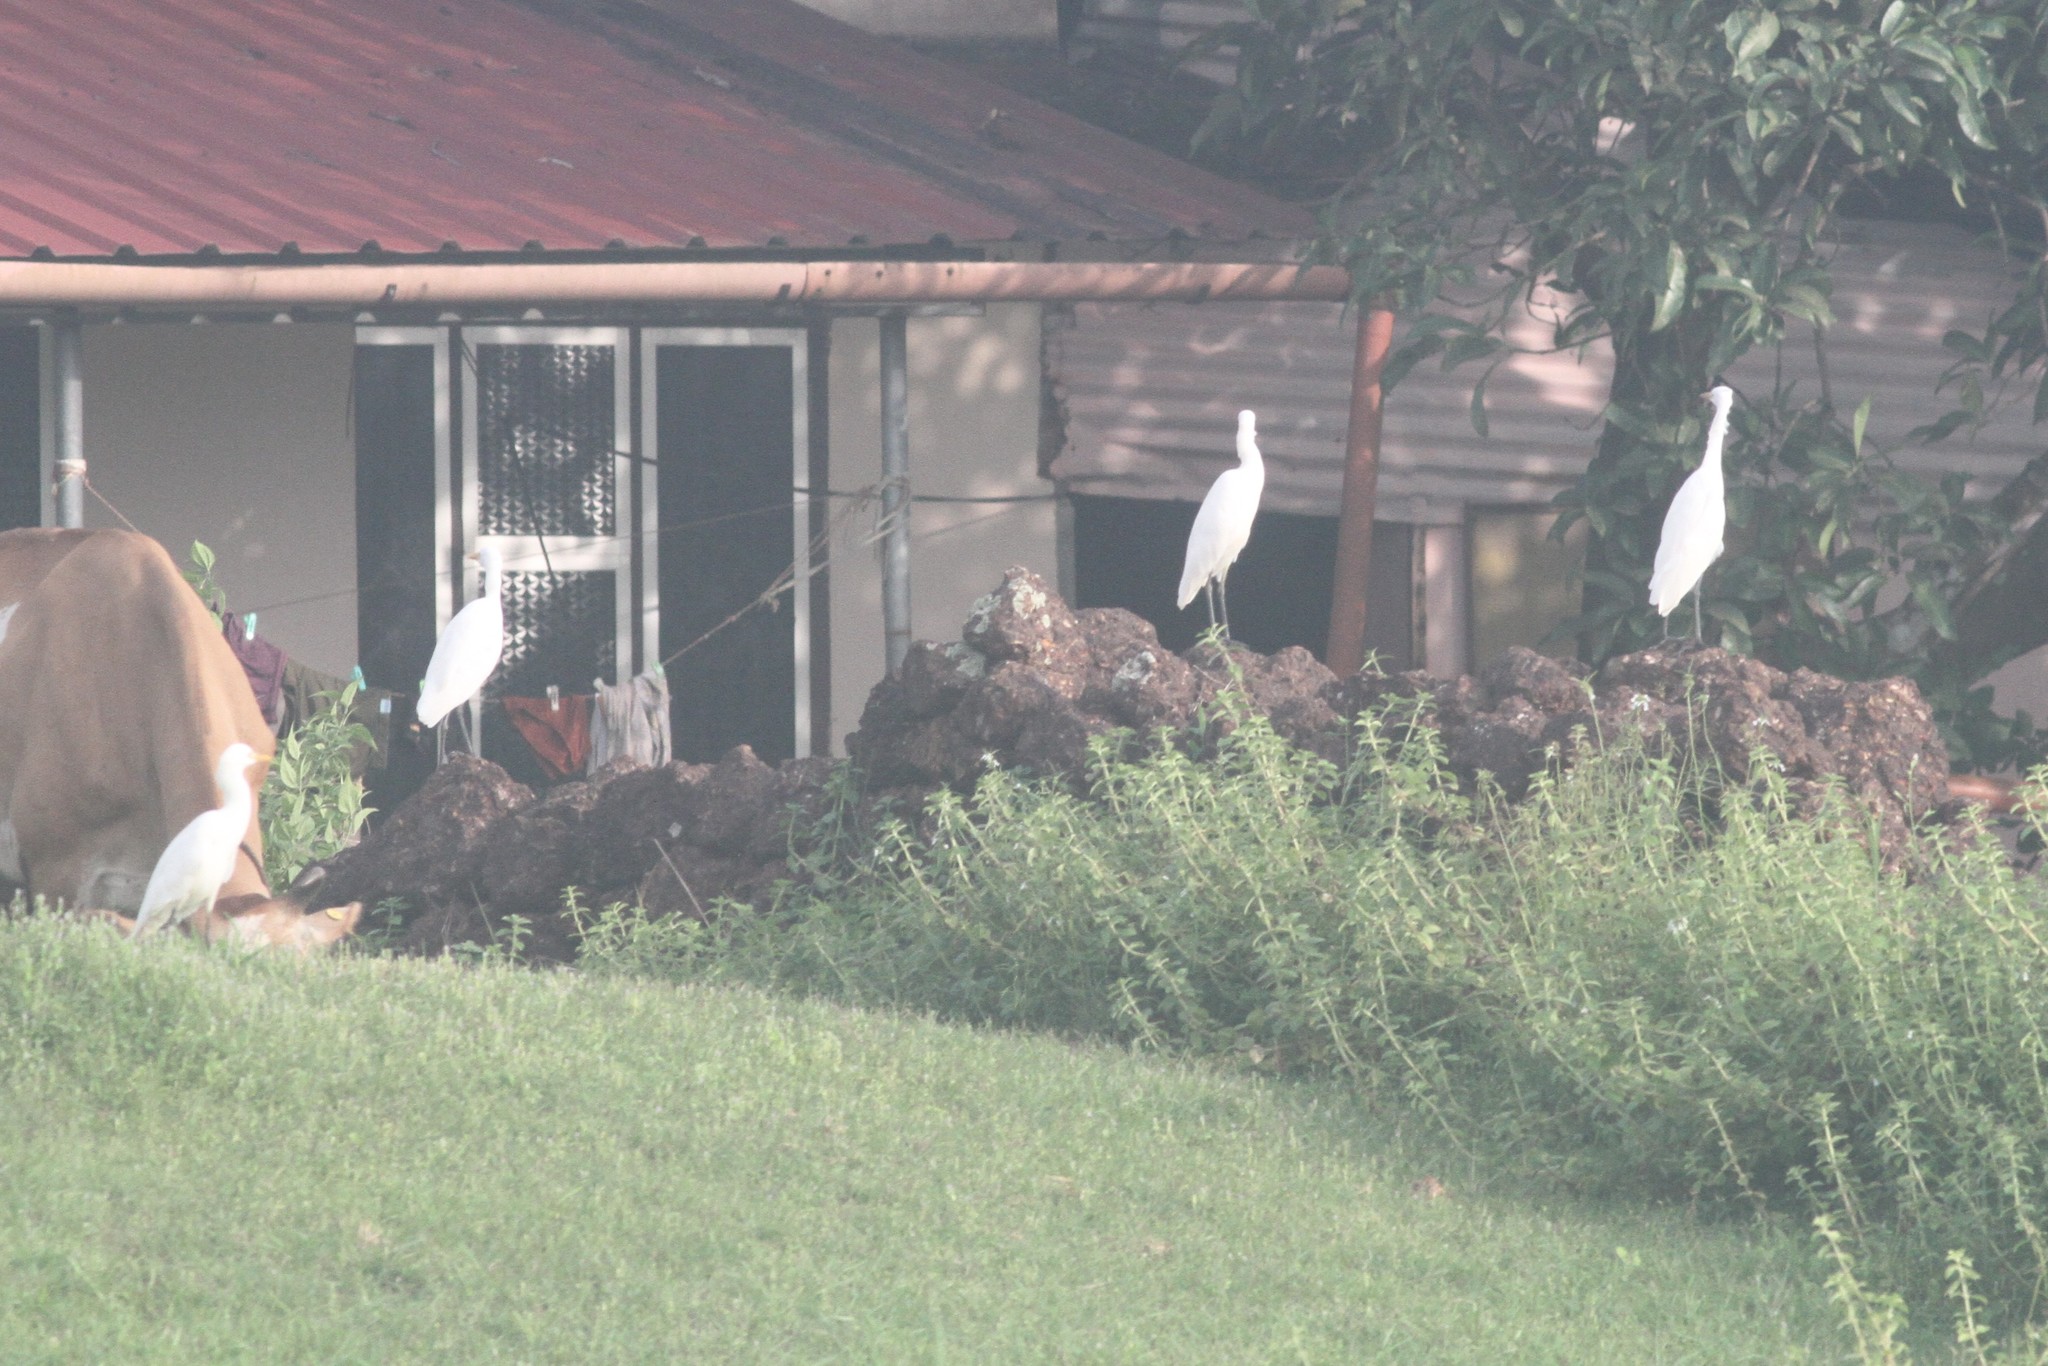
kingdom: Animalia
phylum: Chordata
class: Aves
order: Pelecaniformes
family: Ardeidae
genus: Bubulcus
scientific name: Bubulcus coromandus
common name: Eastern cattle egret
